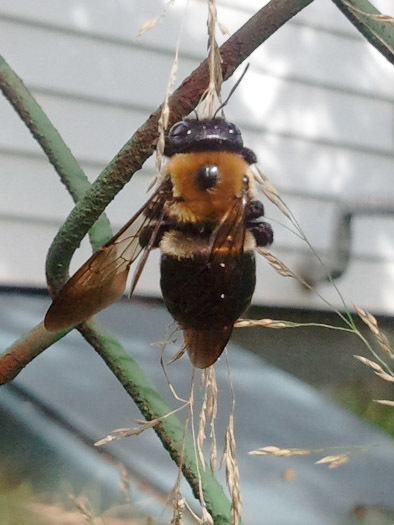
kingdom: Animalia
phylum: Arthropoda
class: Insecta
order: Hymenoptera
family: Apidae
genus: Xylocopa
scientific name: Xylocopa virginica
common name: Carpenter bee
